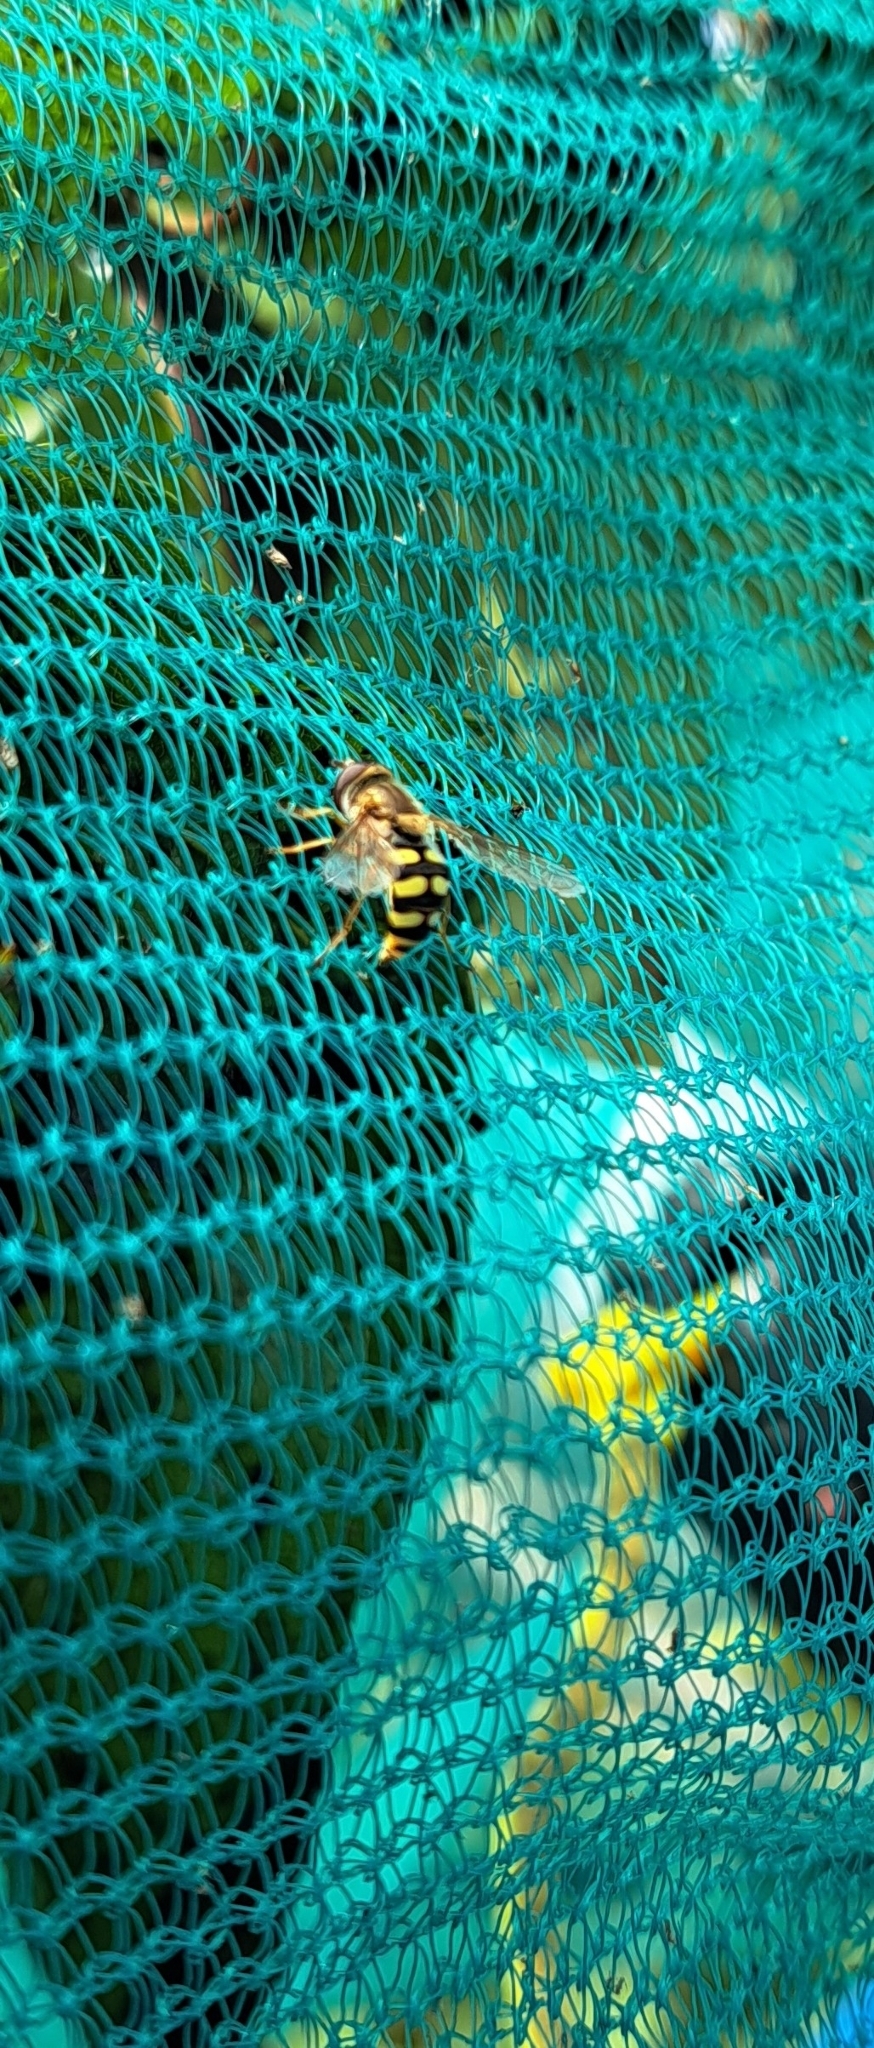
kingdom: Animalia
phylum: Arthropoda
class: Insecta
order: Diptera
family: Syrphidae
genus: Eupeodes
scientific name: Eupeodes corollae
